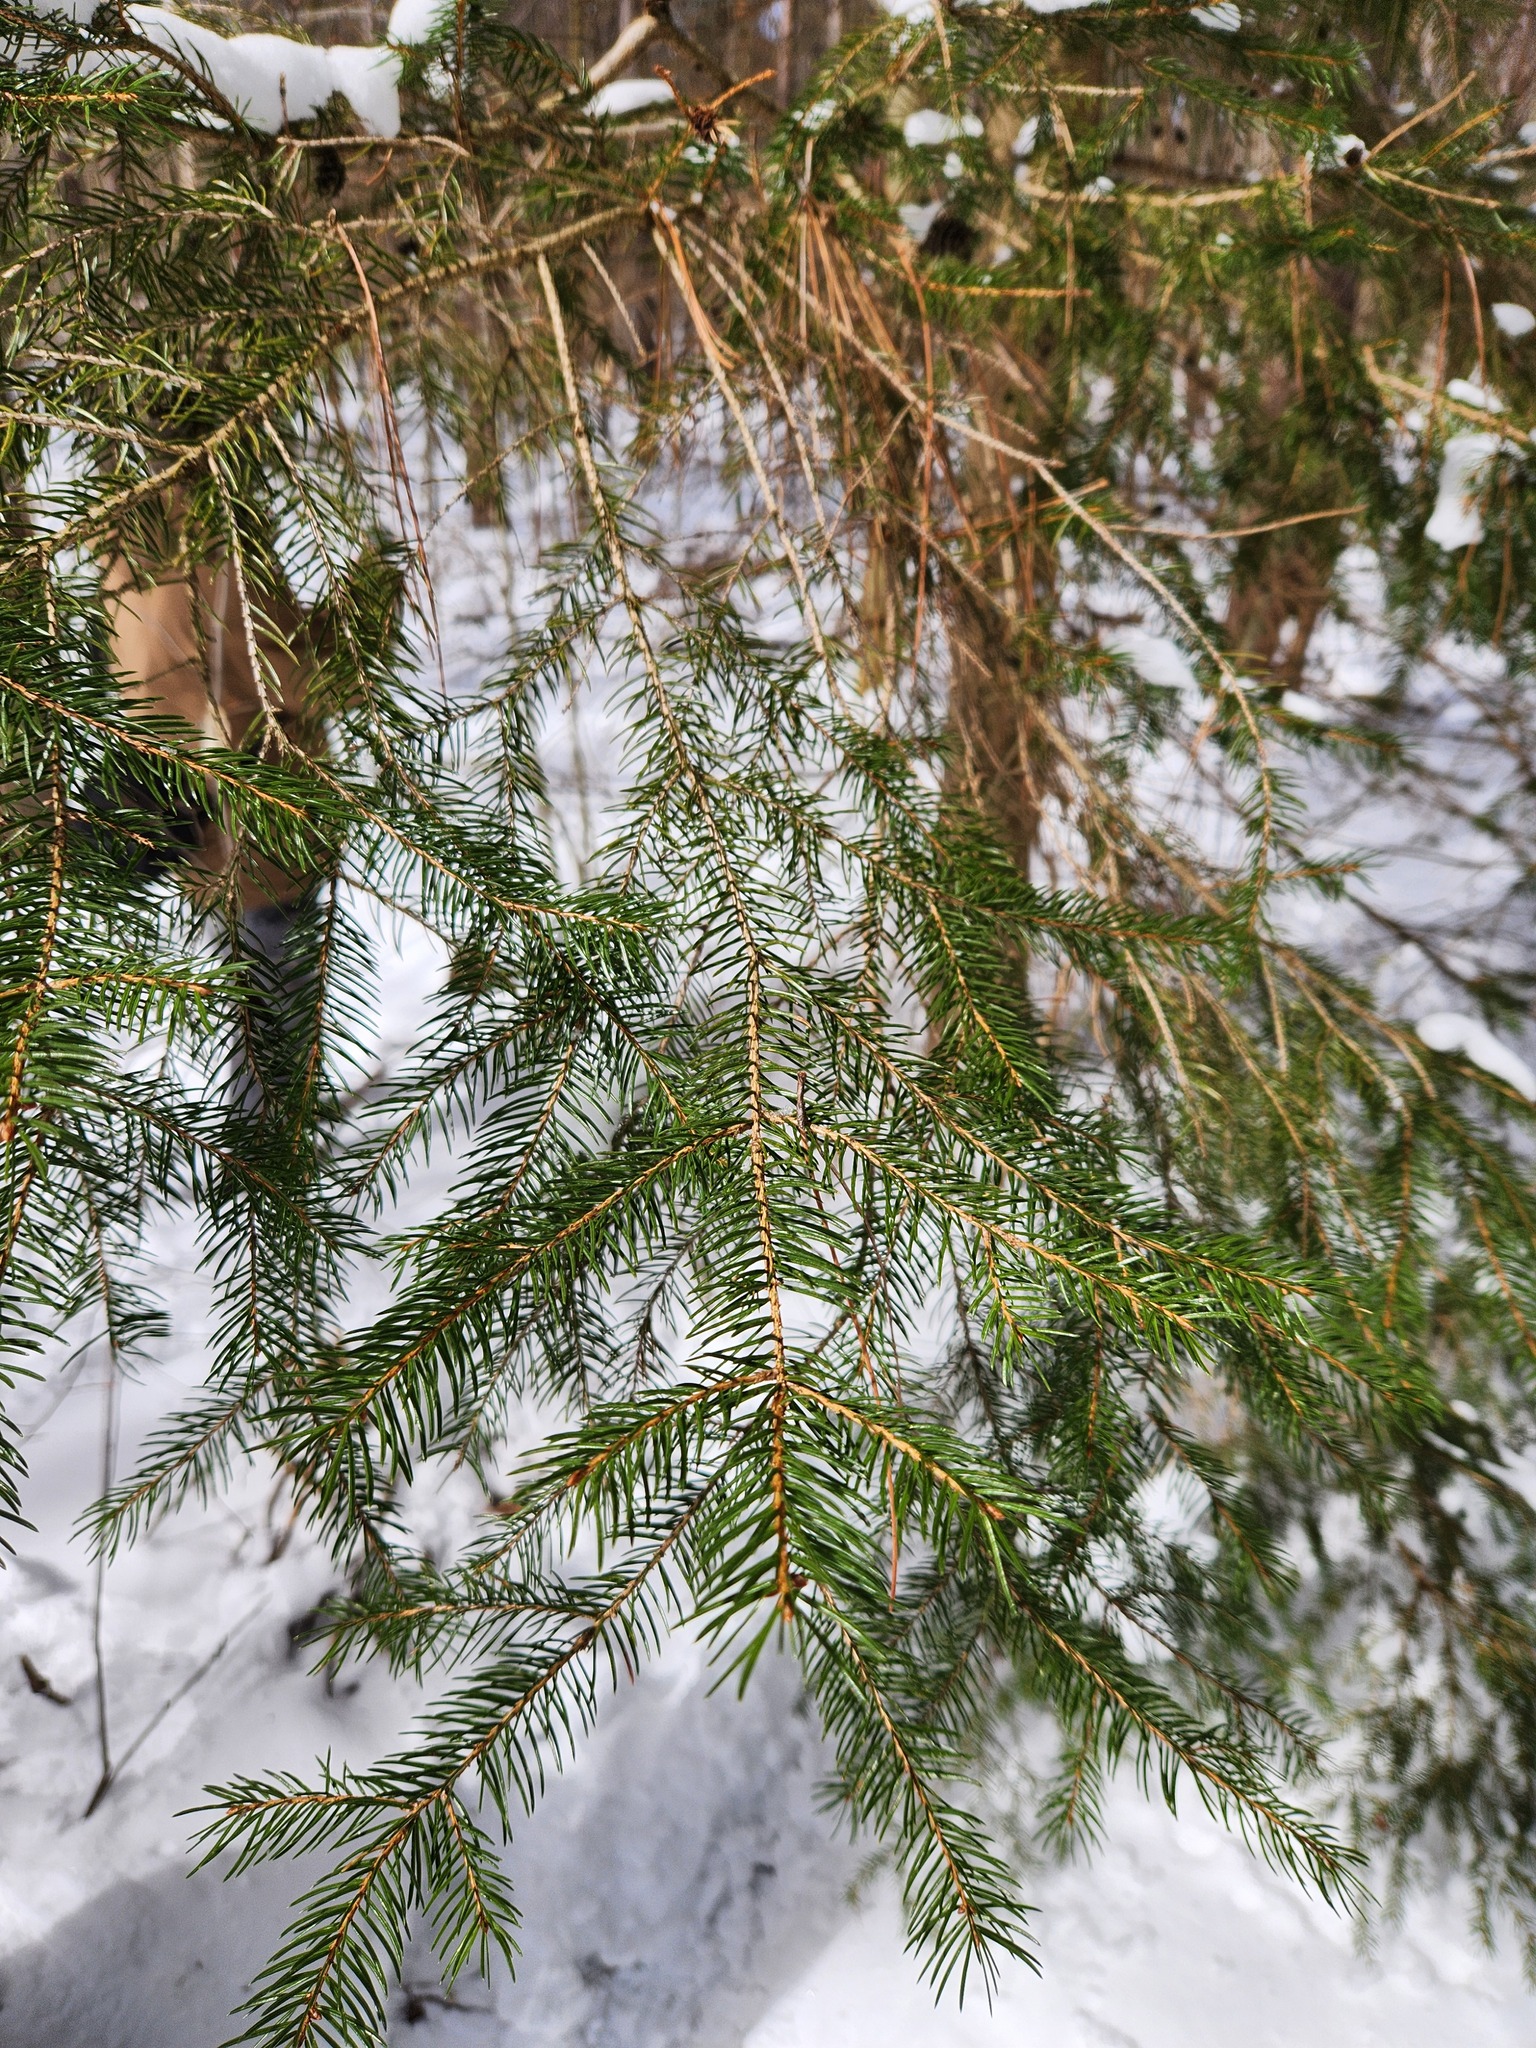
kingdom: Plantae
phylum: Tracheophyta
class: Pinopsida
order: Pinales
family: Pinaceae
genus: Picea
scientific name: Picea abies
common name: Norway spruce
